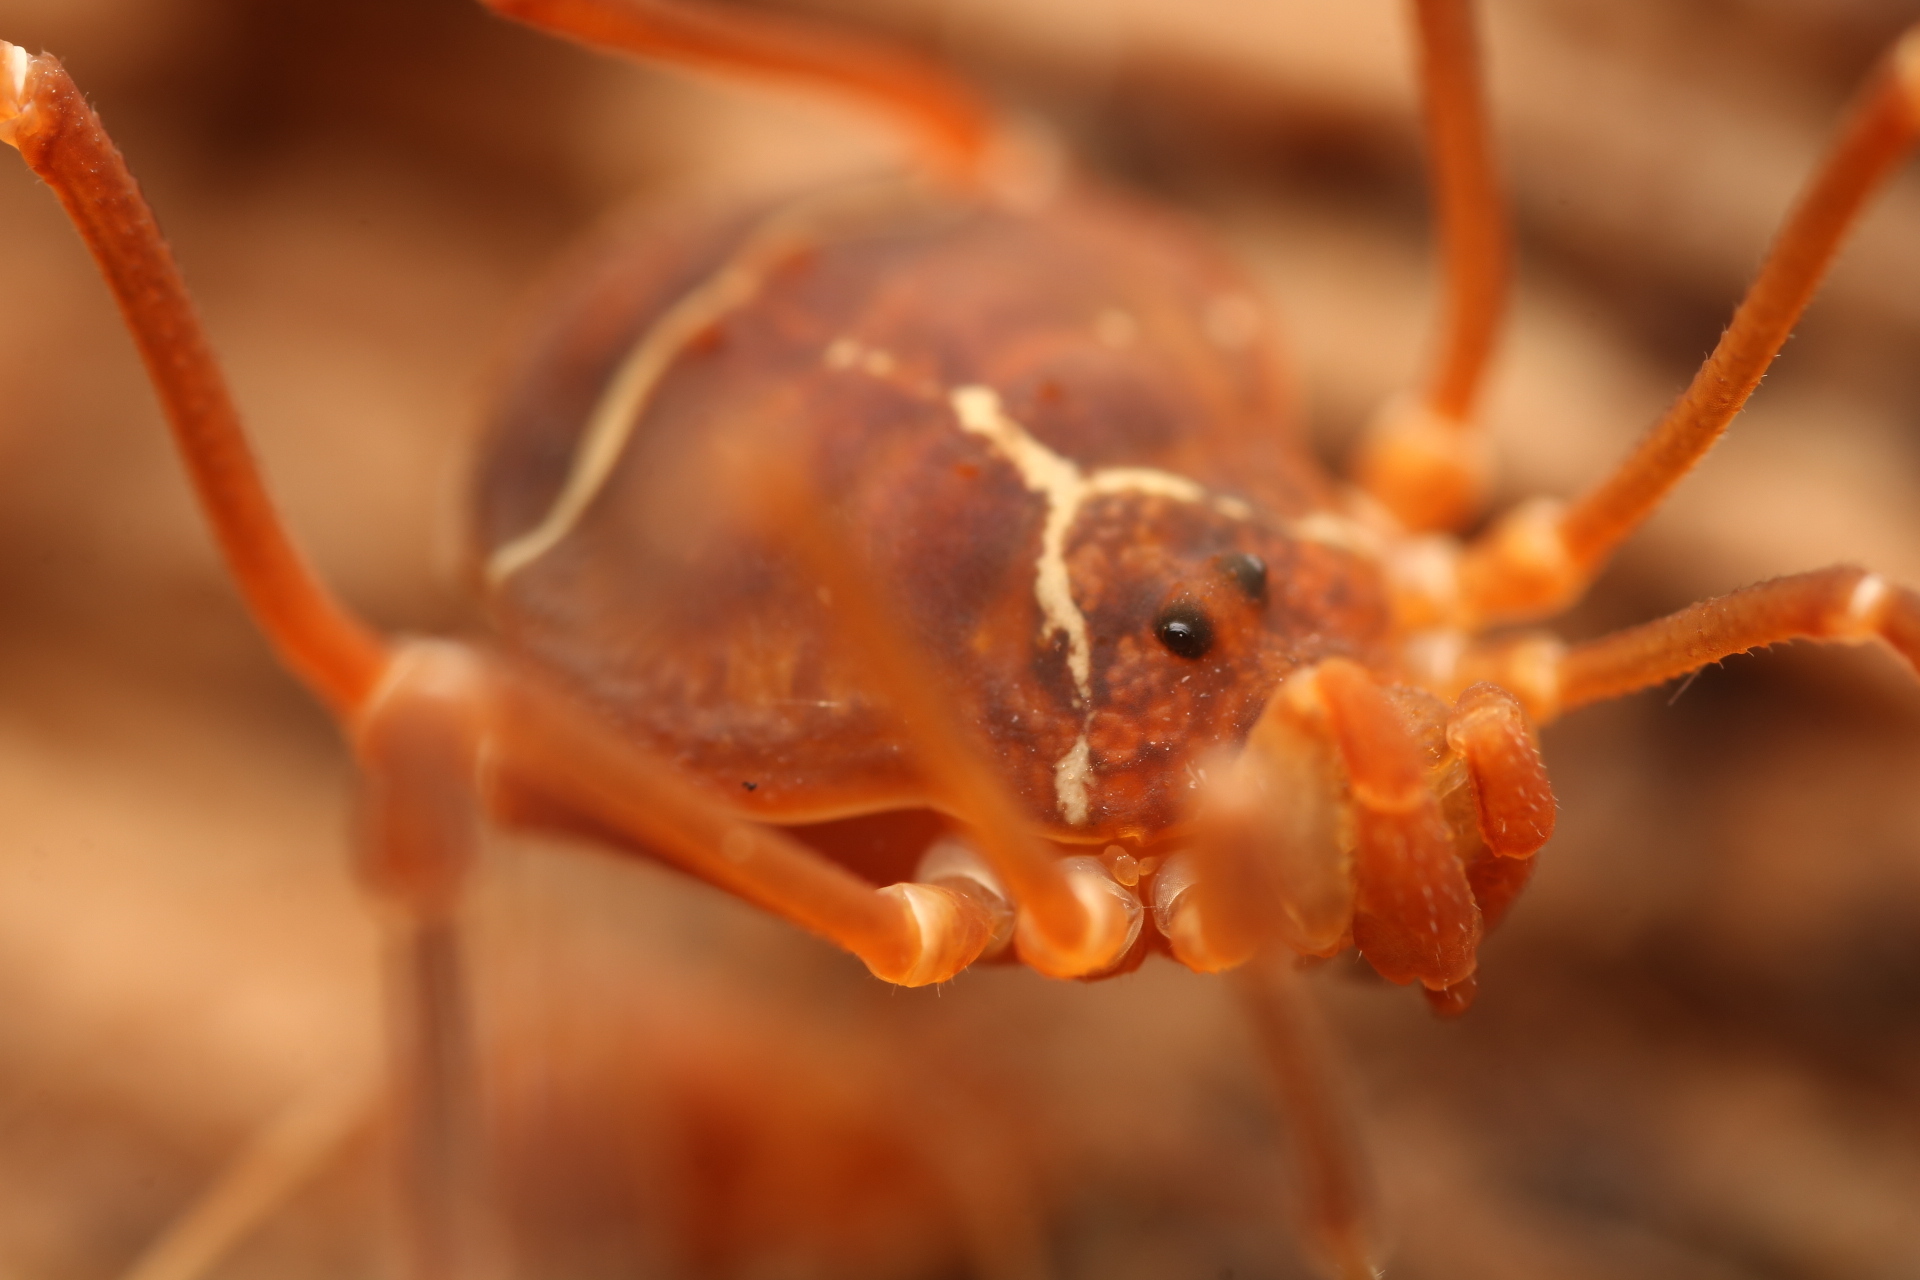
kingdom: Animalia
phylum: Arthropoda
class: Arachnida
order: Opiliones
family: Cosmetidae
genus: Libitioides
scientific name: Libitioides sayi
